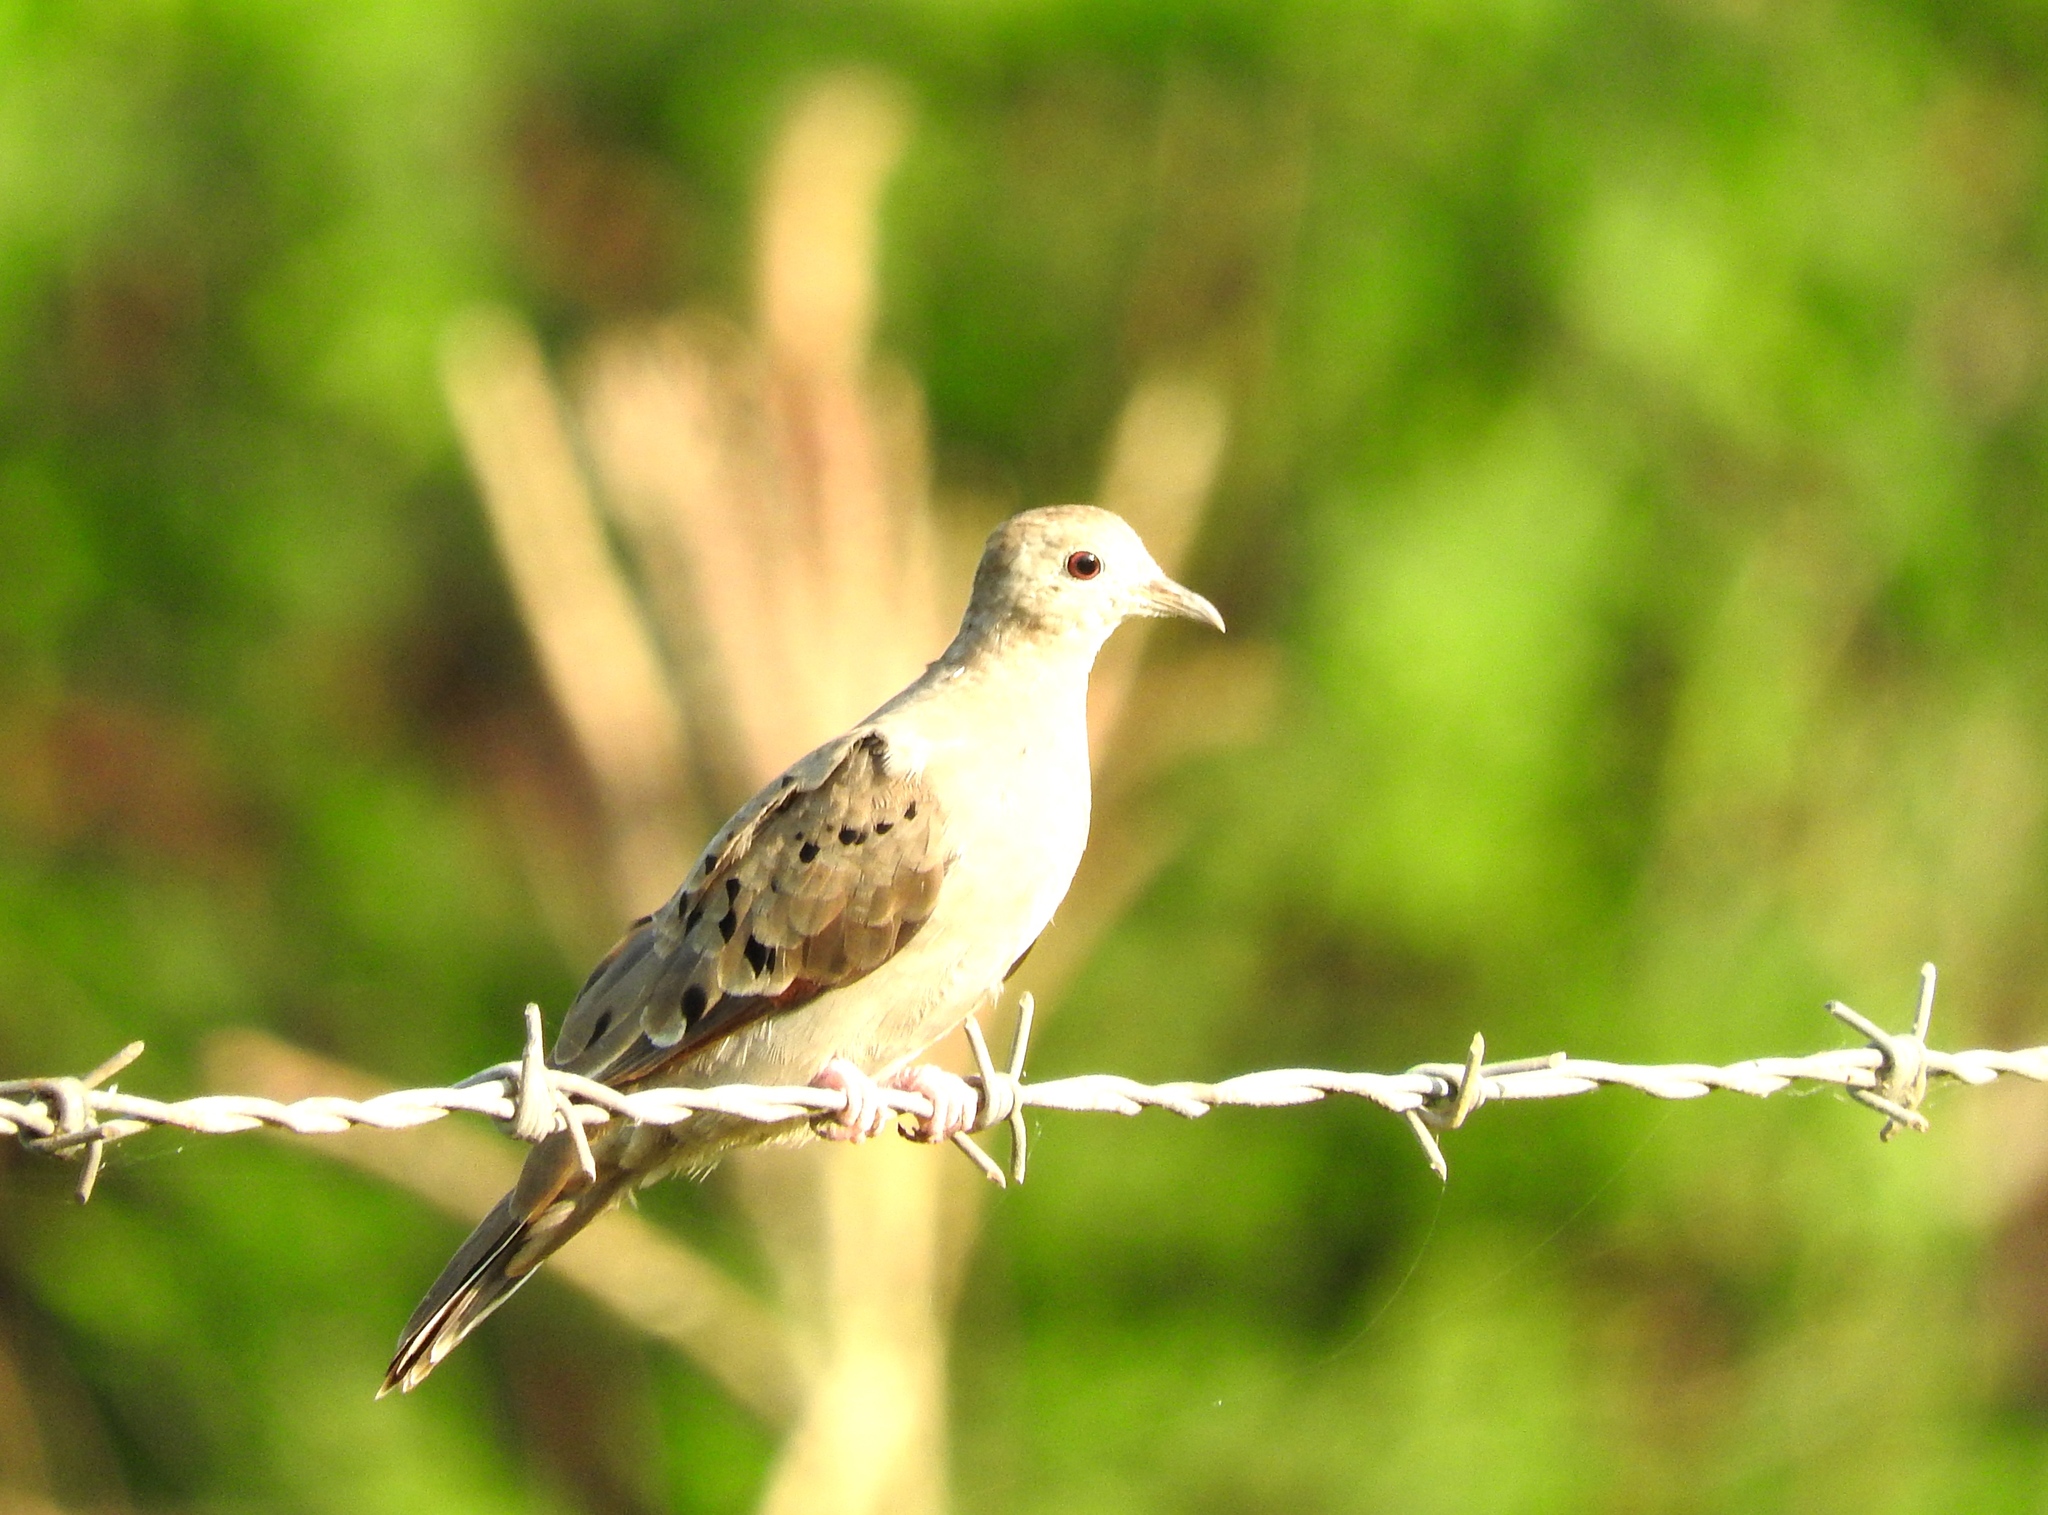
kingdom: Animalia
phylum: Chordata
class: Aves
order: Columbiformes
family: Columbidae
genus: Columbina
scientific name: Columbina talpacoti
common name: Ruddy ground dove
